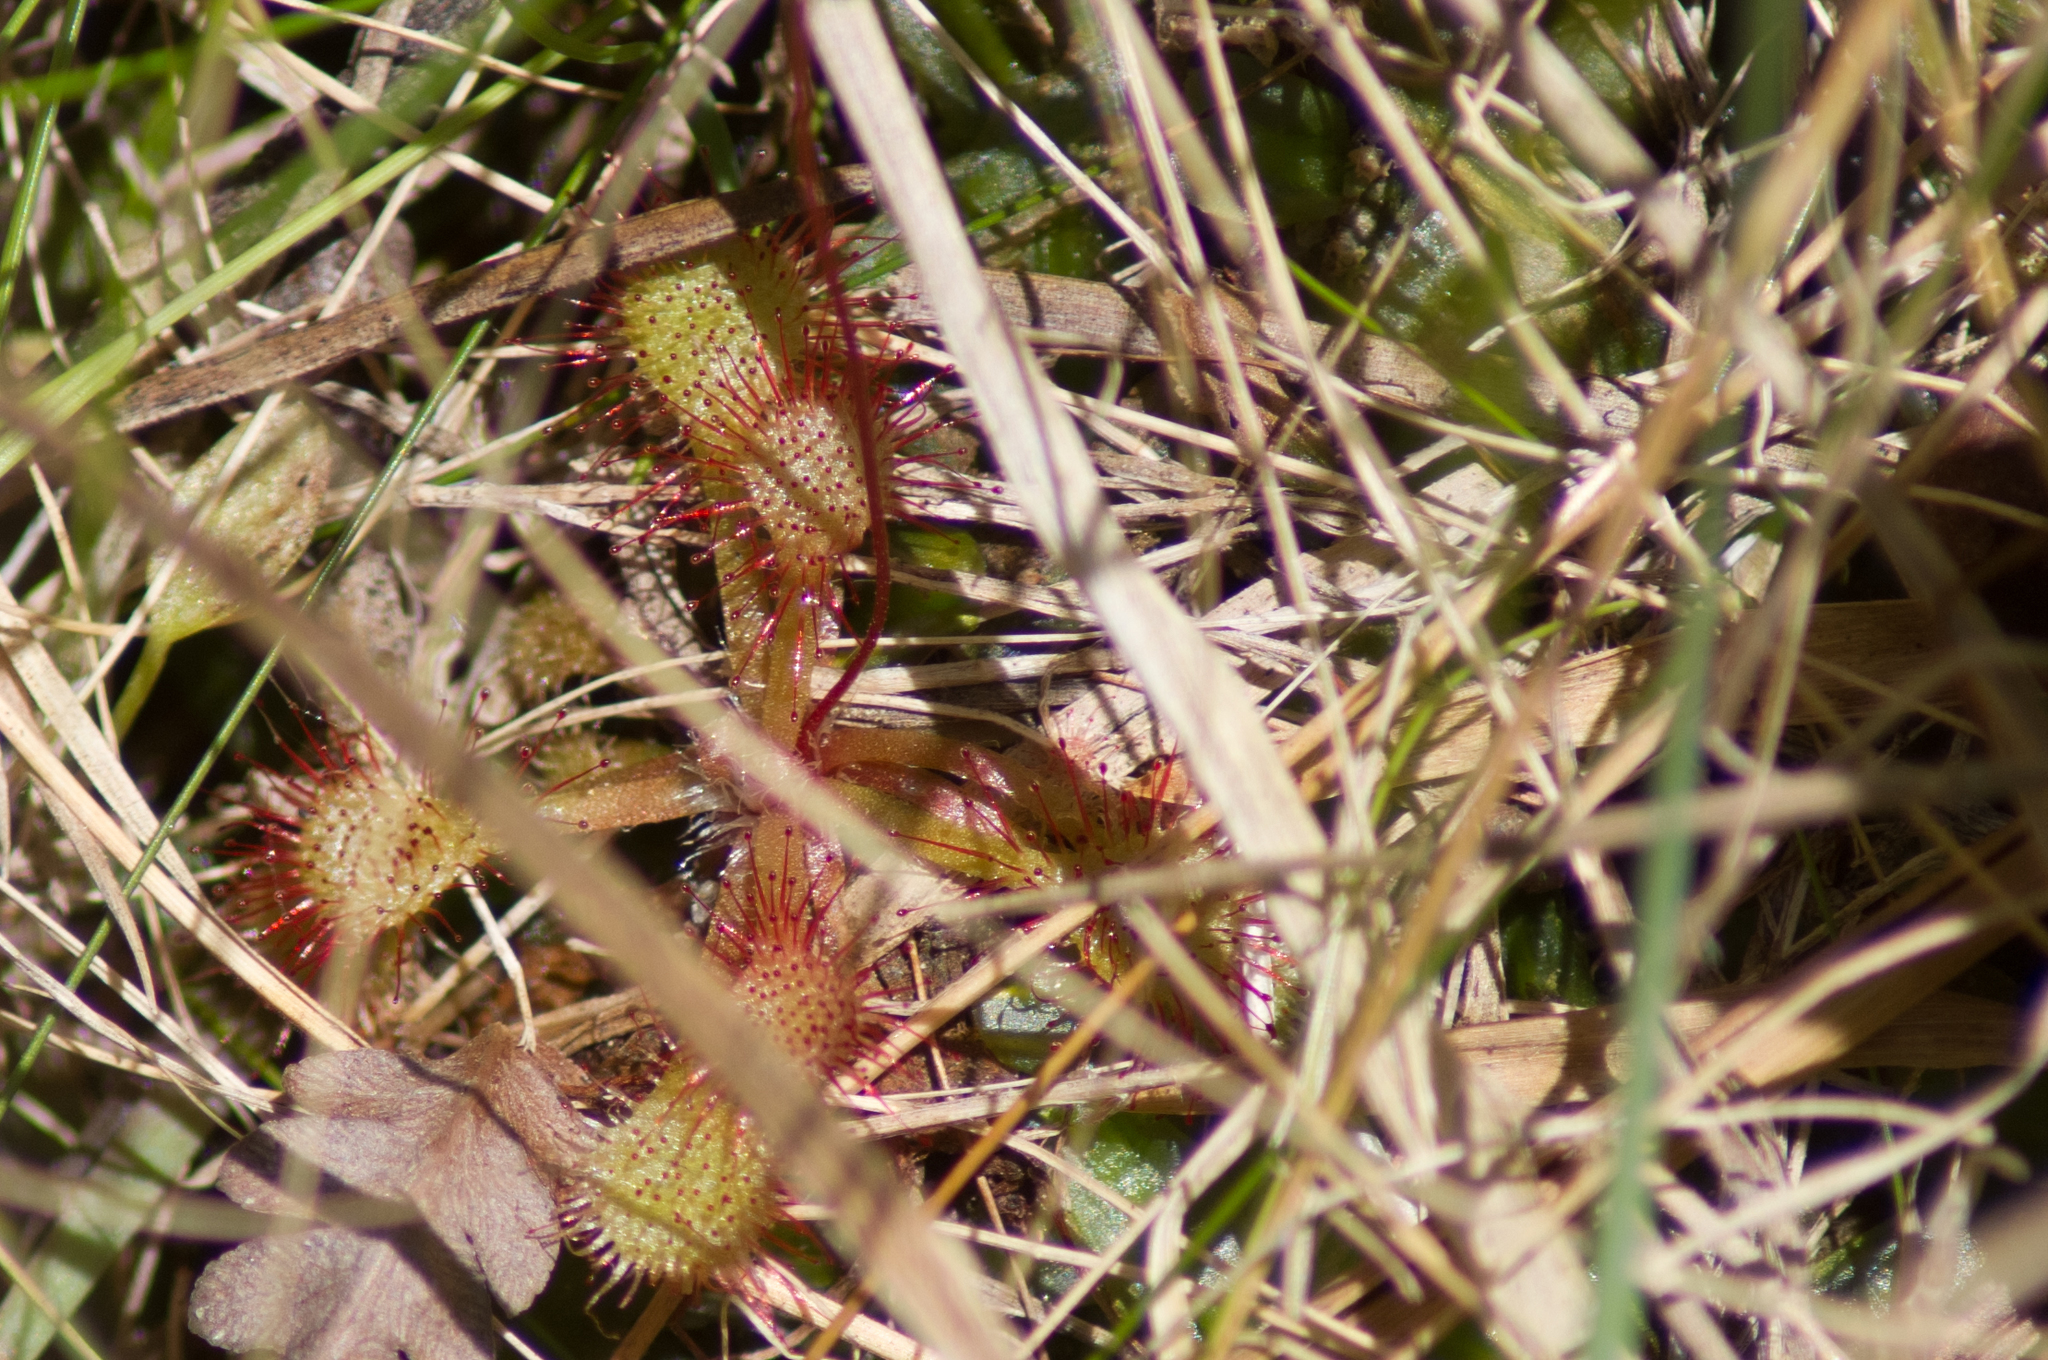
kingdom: Plantae
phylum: Tracheophyta
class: Magnoliopsida
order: Caryophyllales
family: Droseraceae
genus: Drosera
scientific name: Drosera capillaris
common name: Pink sundew
